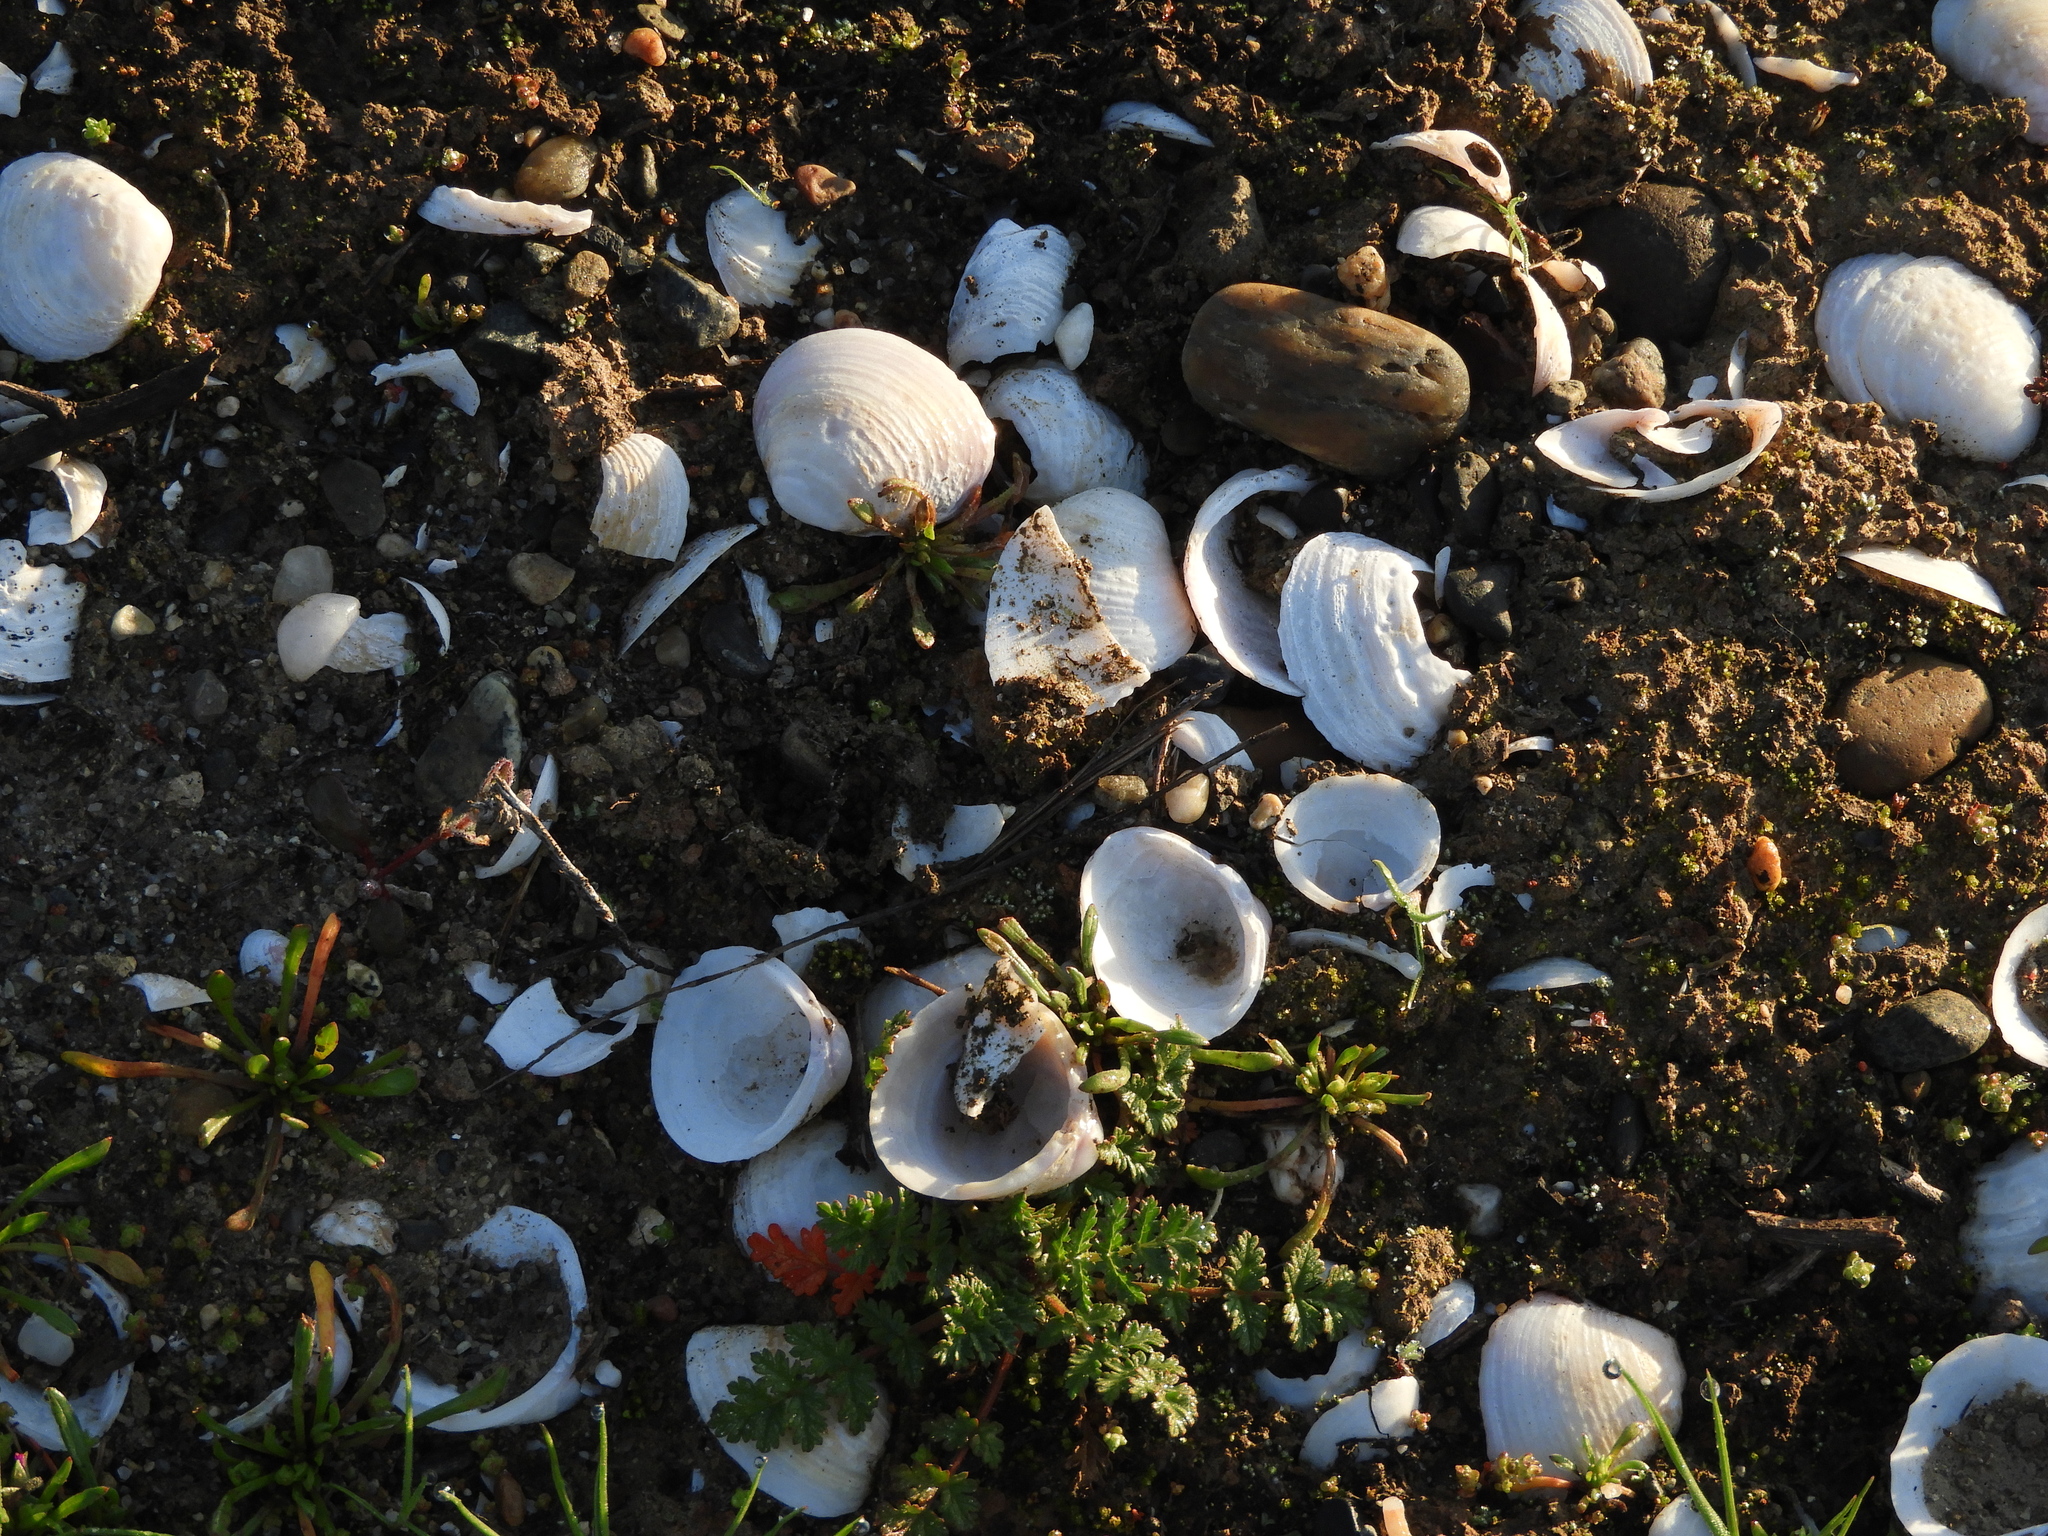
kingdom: Animalia
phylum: Mollusca
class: Bivalvia
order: Venerida
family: Cyrenidae
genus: Corbicula
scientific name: Corbicula fluminea
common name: Asian clam
